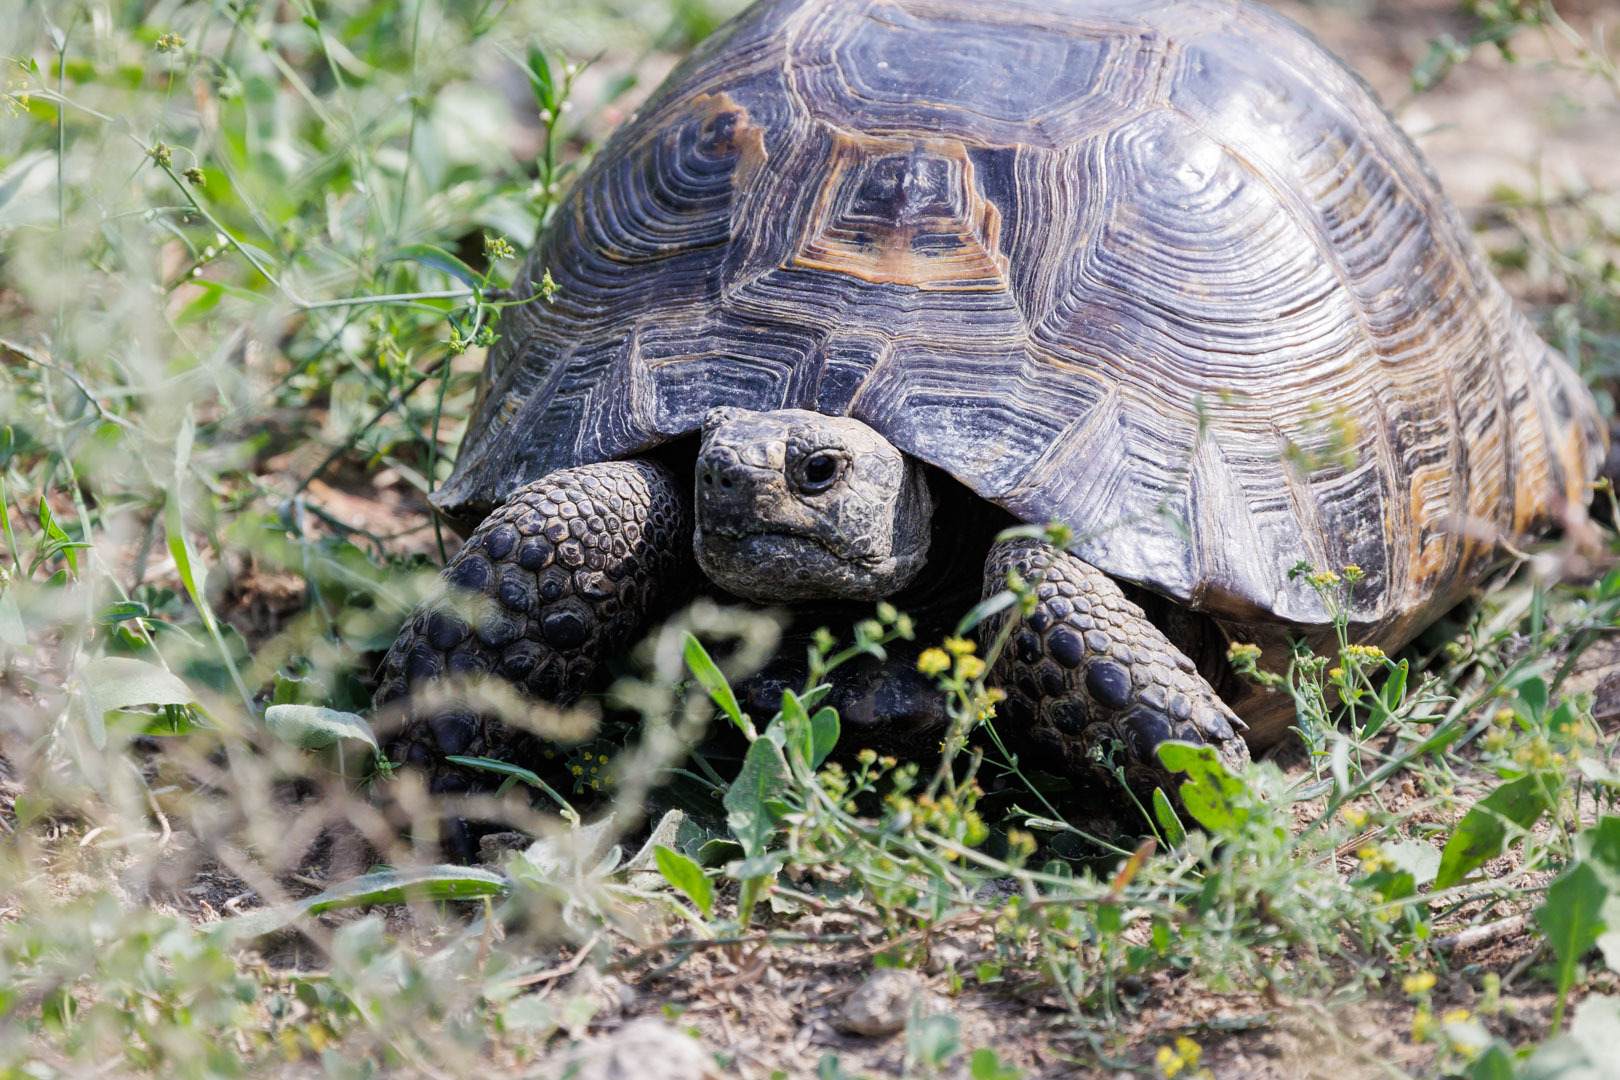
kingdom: Animalia
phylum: Chordata
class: Testudines
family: Testudinidae
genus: Testudo
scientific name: Testudo graeca
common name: Common tortoise
